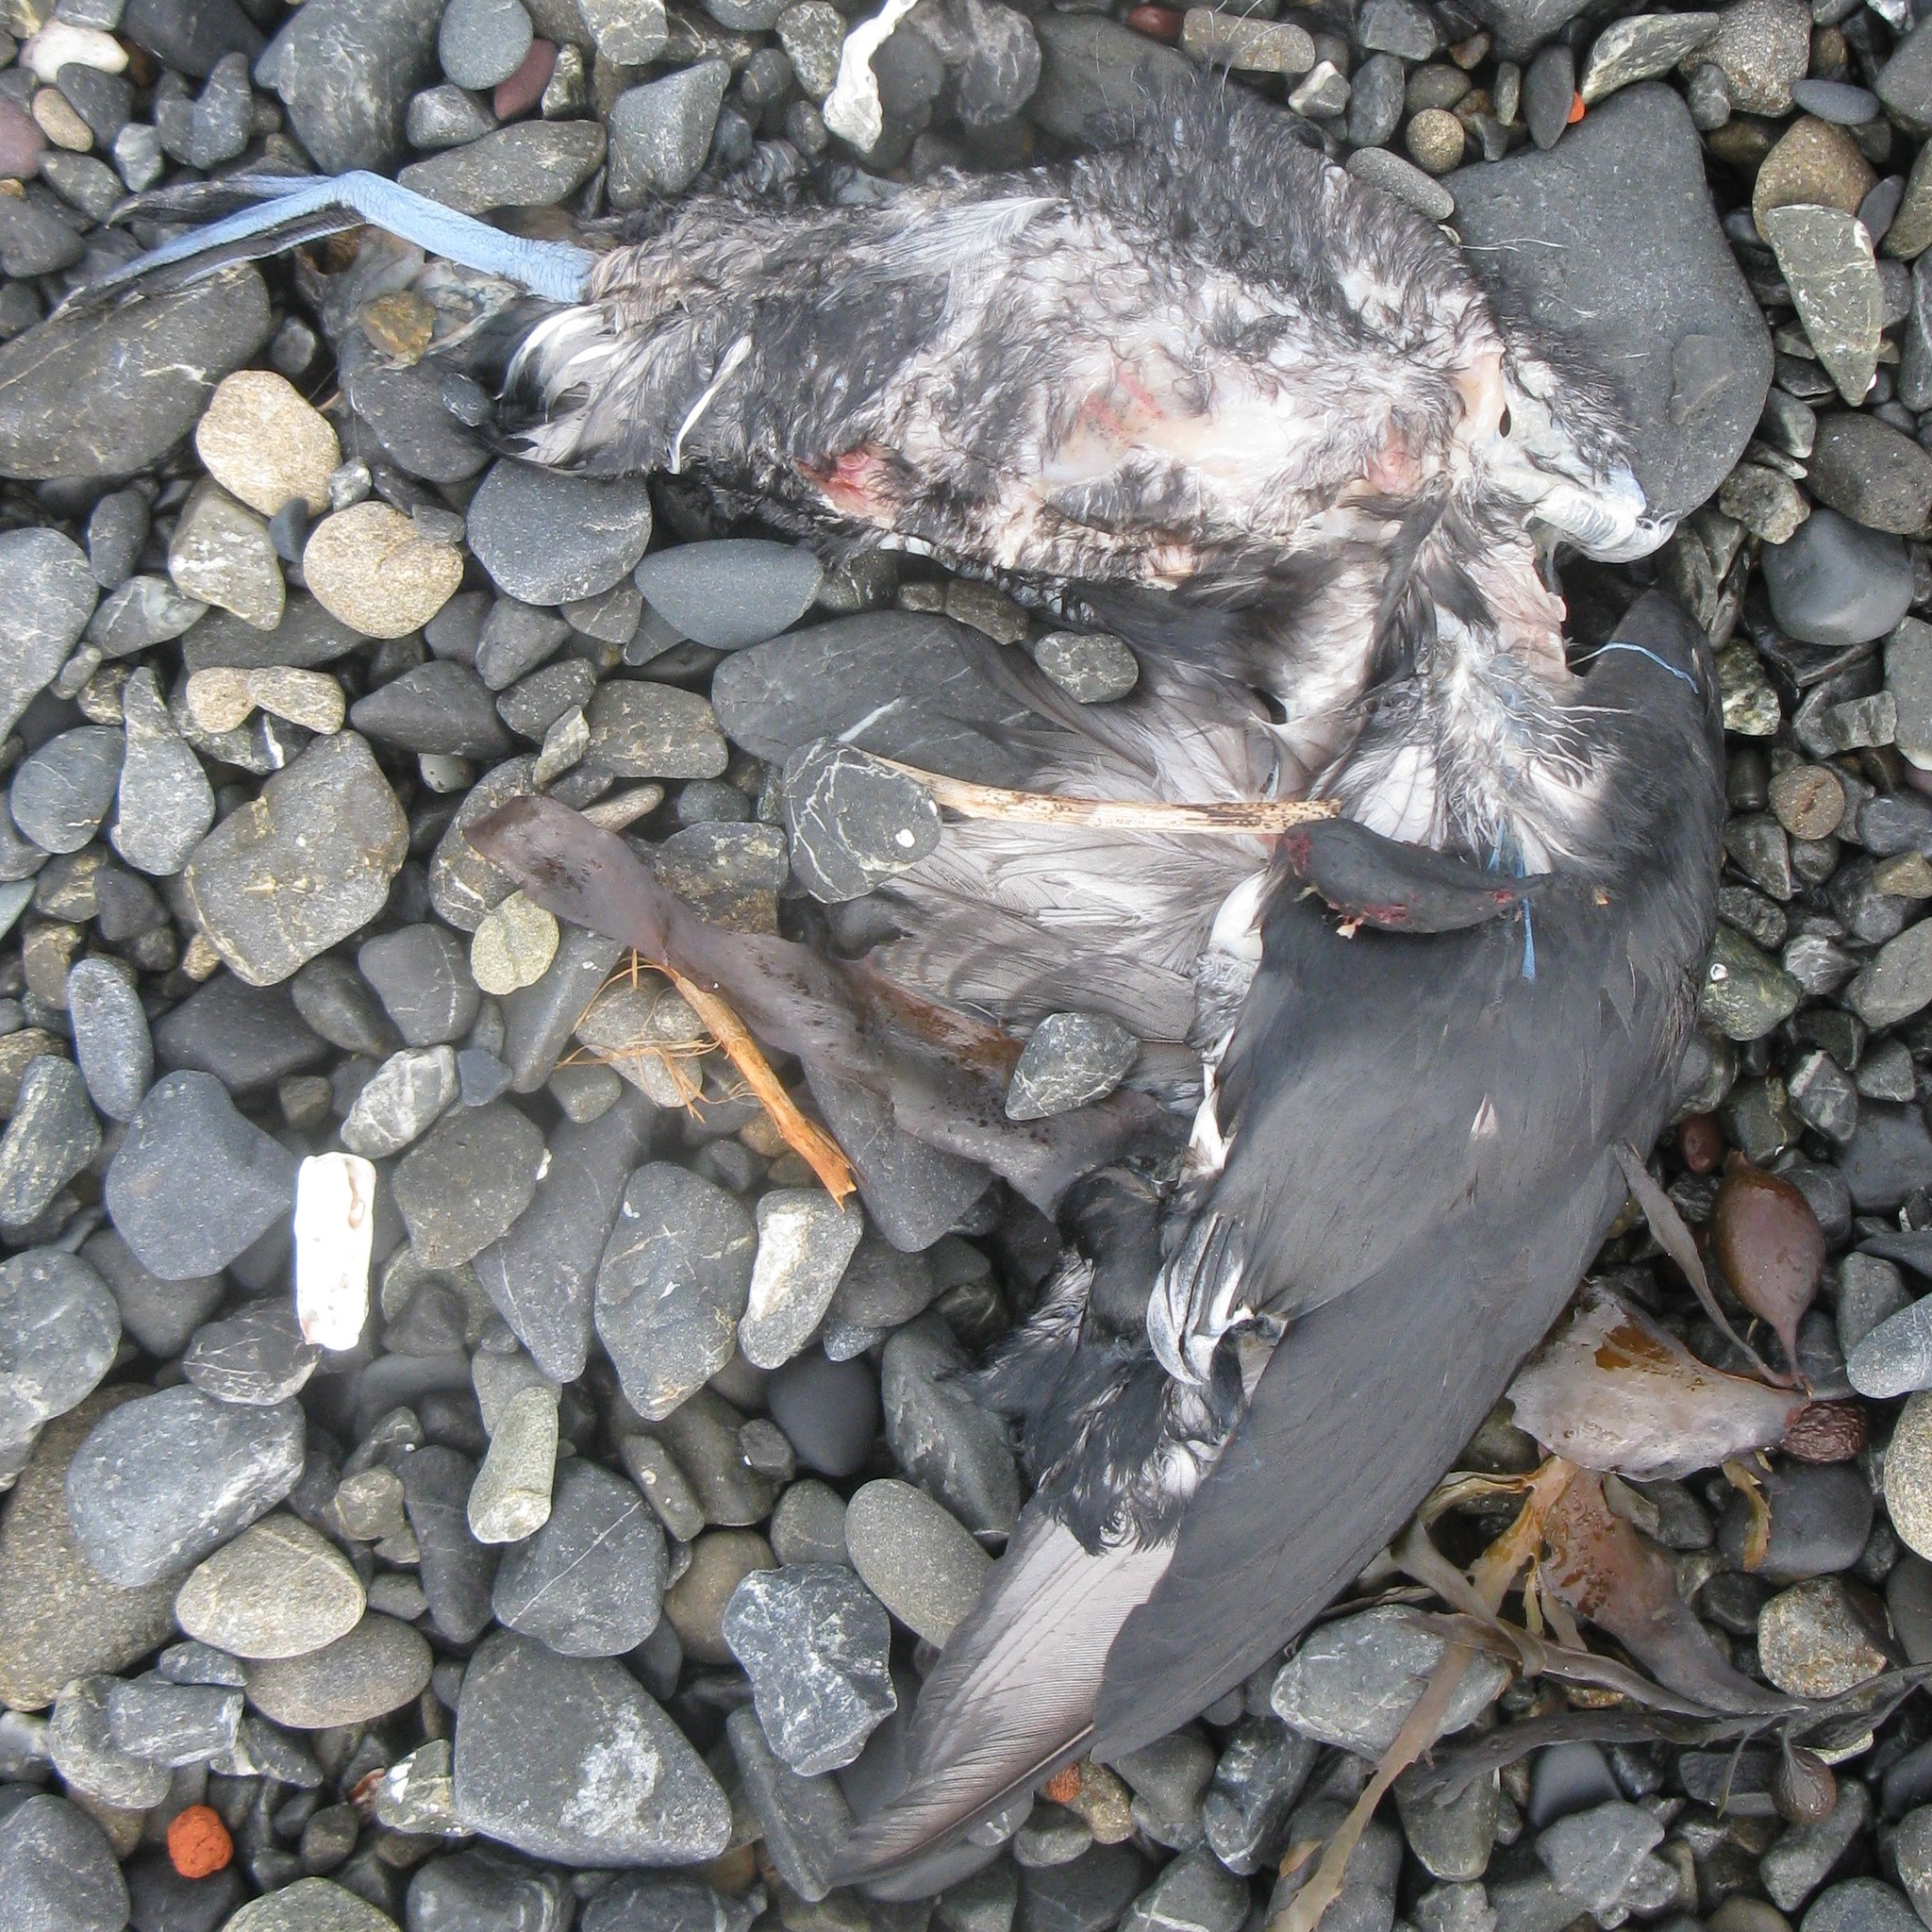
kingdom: Animalia
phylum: Chordata
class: Aves
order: Procellariiformes
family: Pelecanoididae
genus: Pelecanoides
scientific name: Pelecanoides urinatrix
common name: Common diving-petrel
